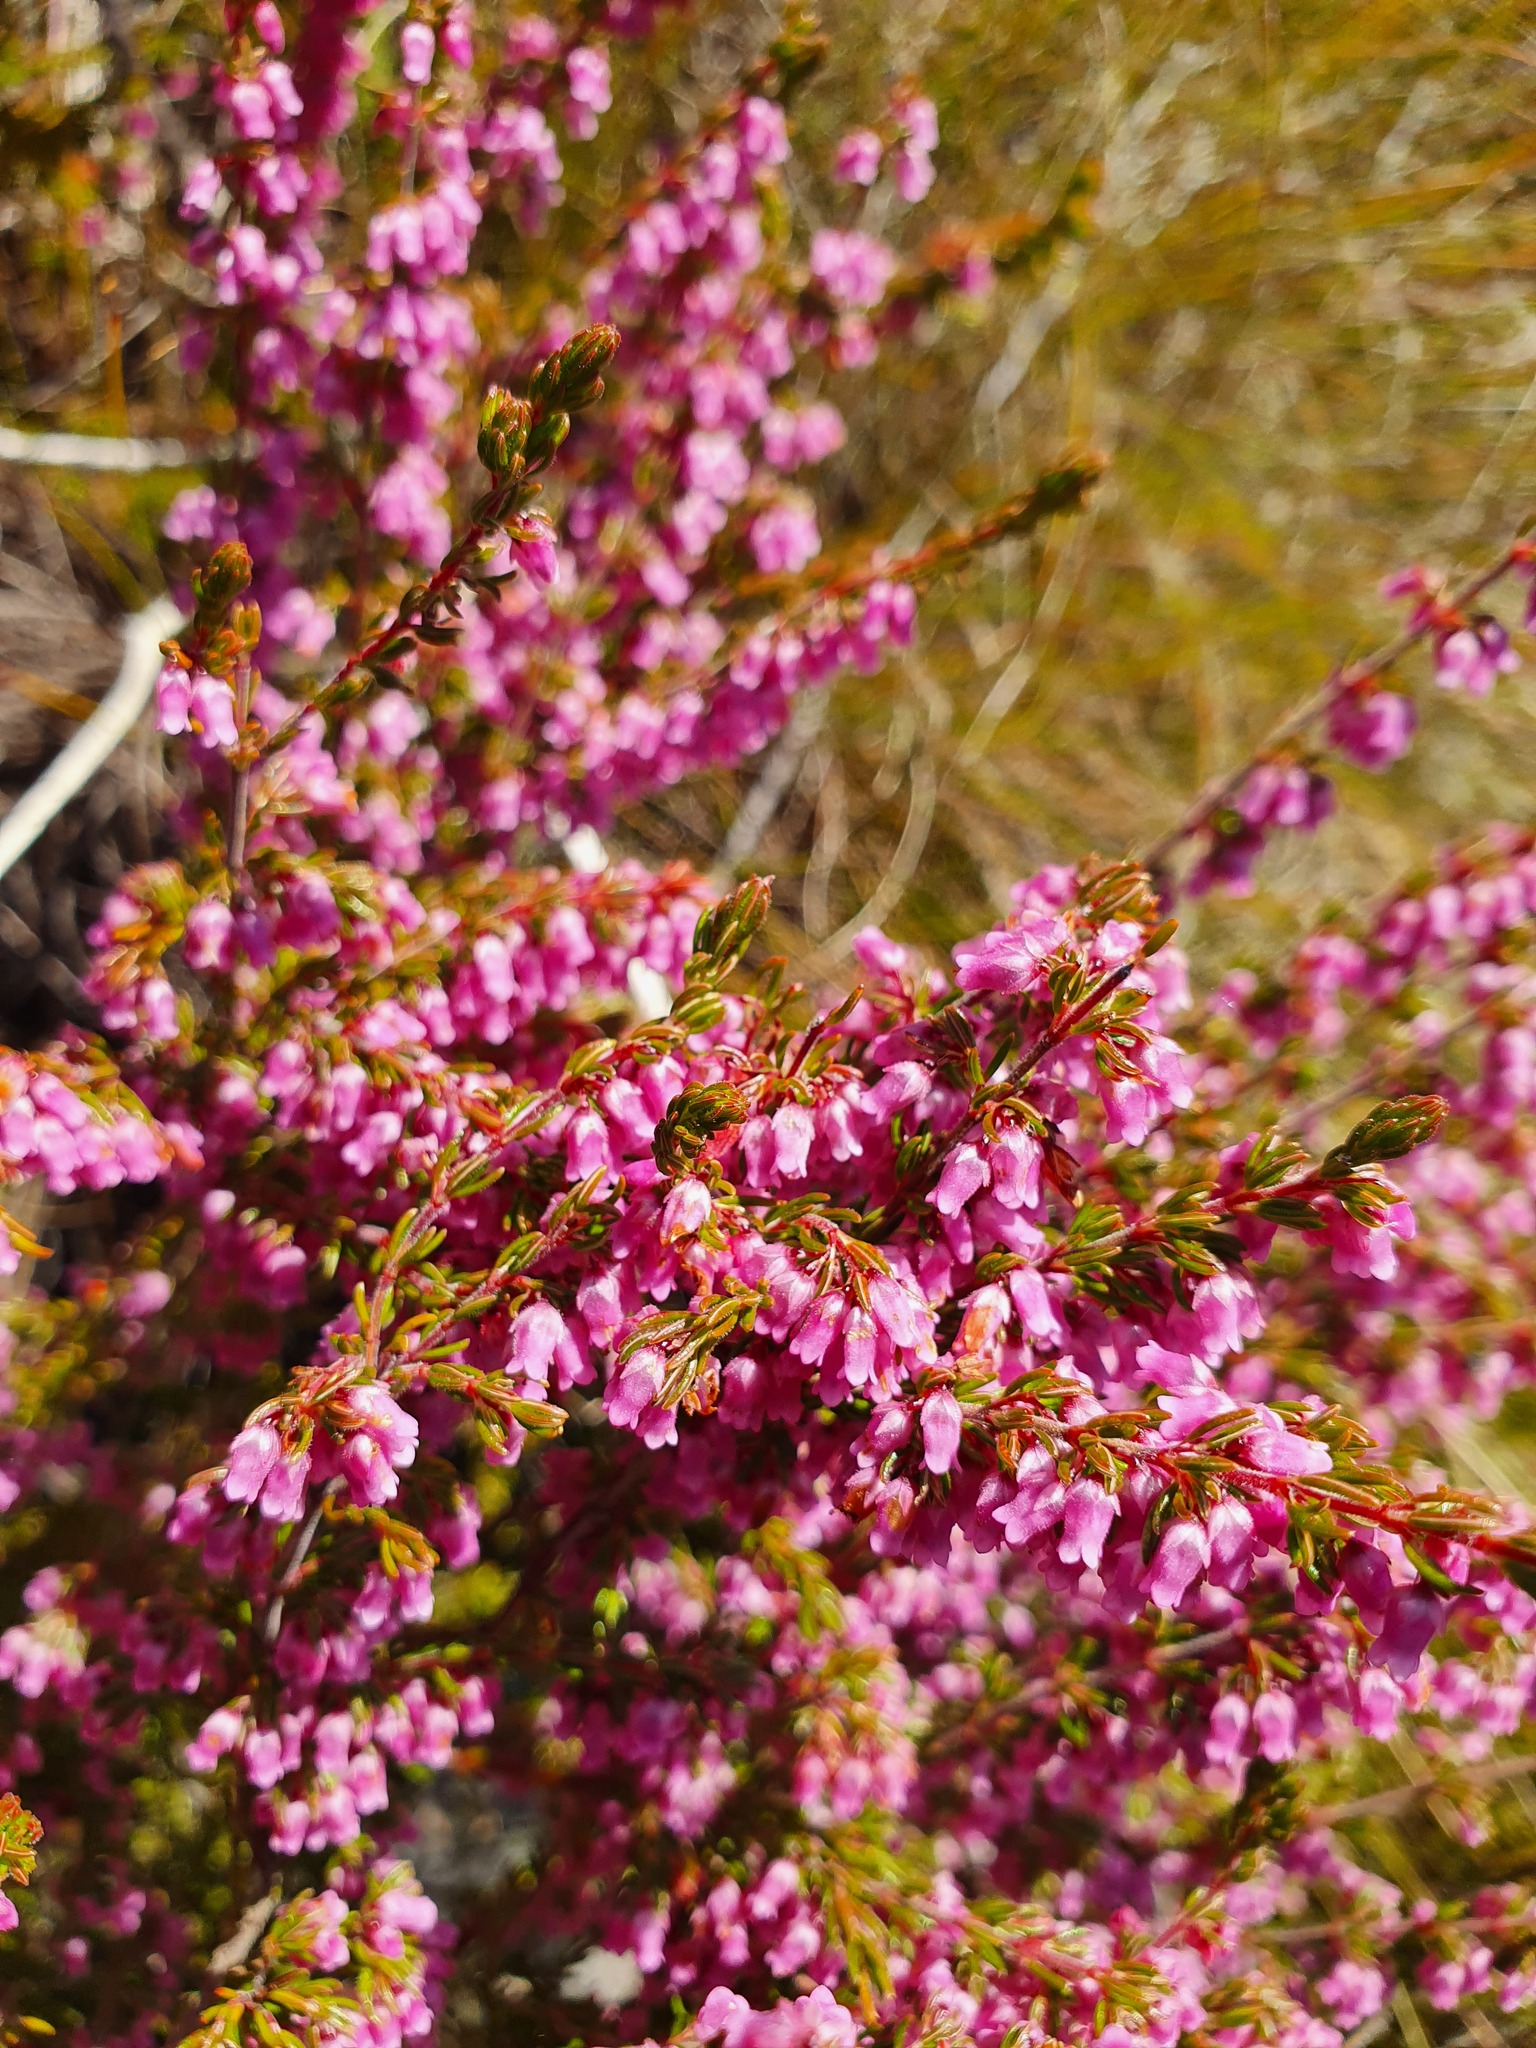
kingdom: Plantae
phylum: Tracheophyta
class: Magnoliopsida
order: Ericales
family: Ericaceae
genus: Erica
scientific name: Erica intervallaris
